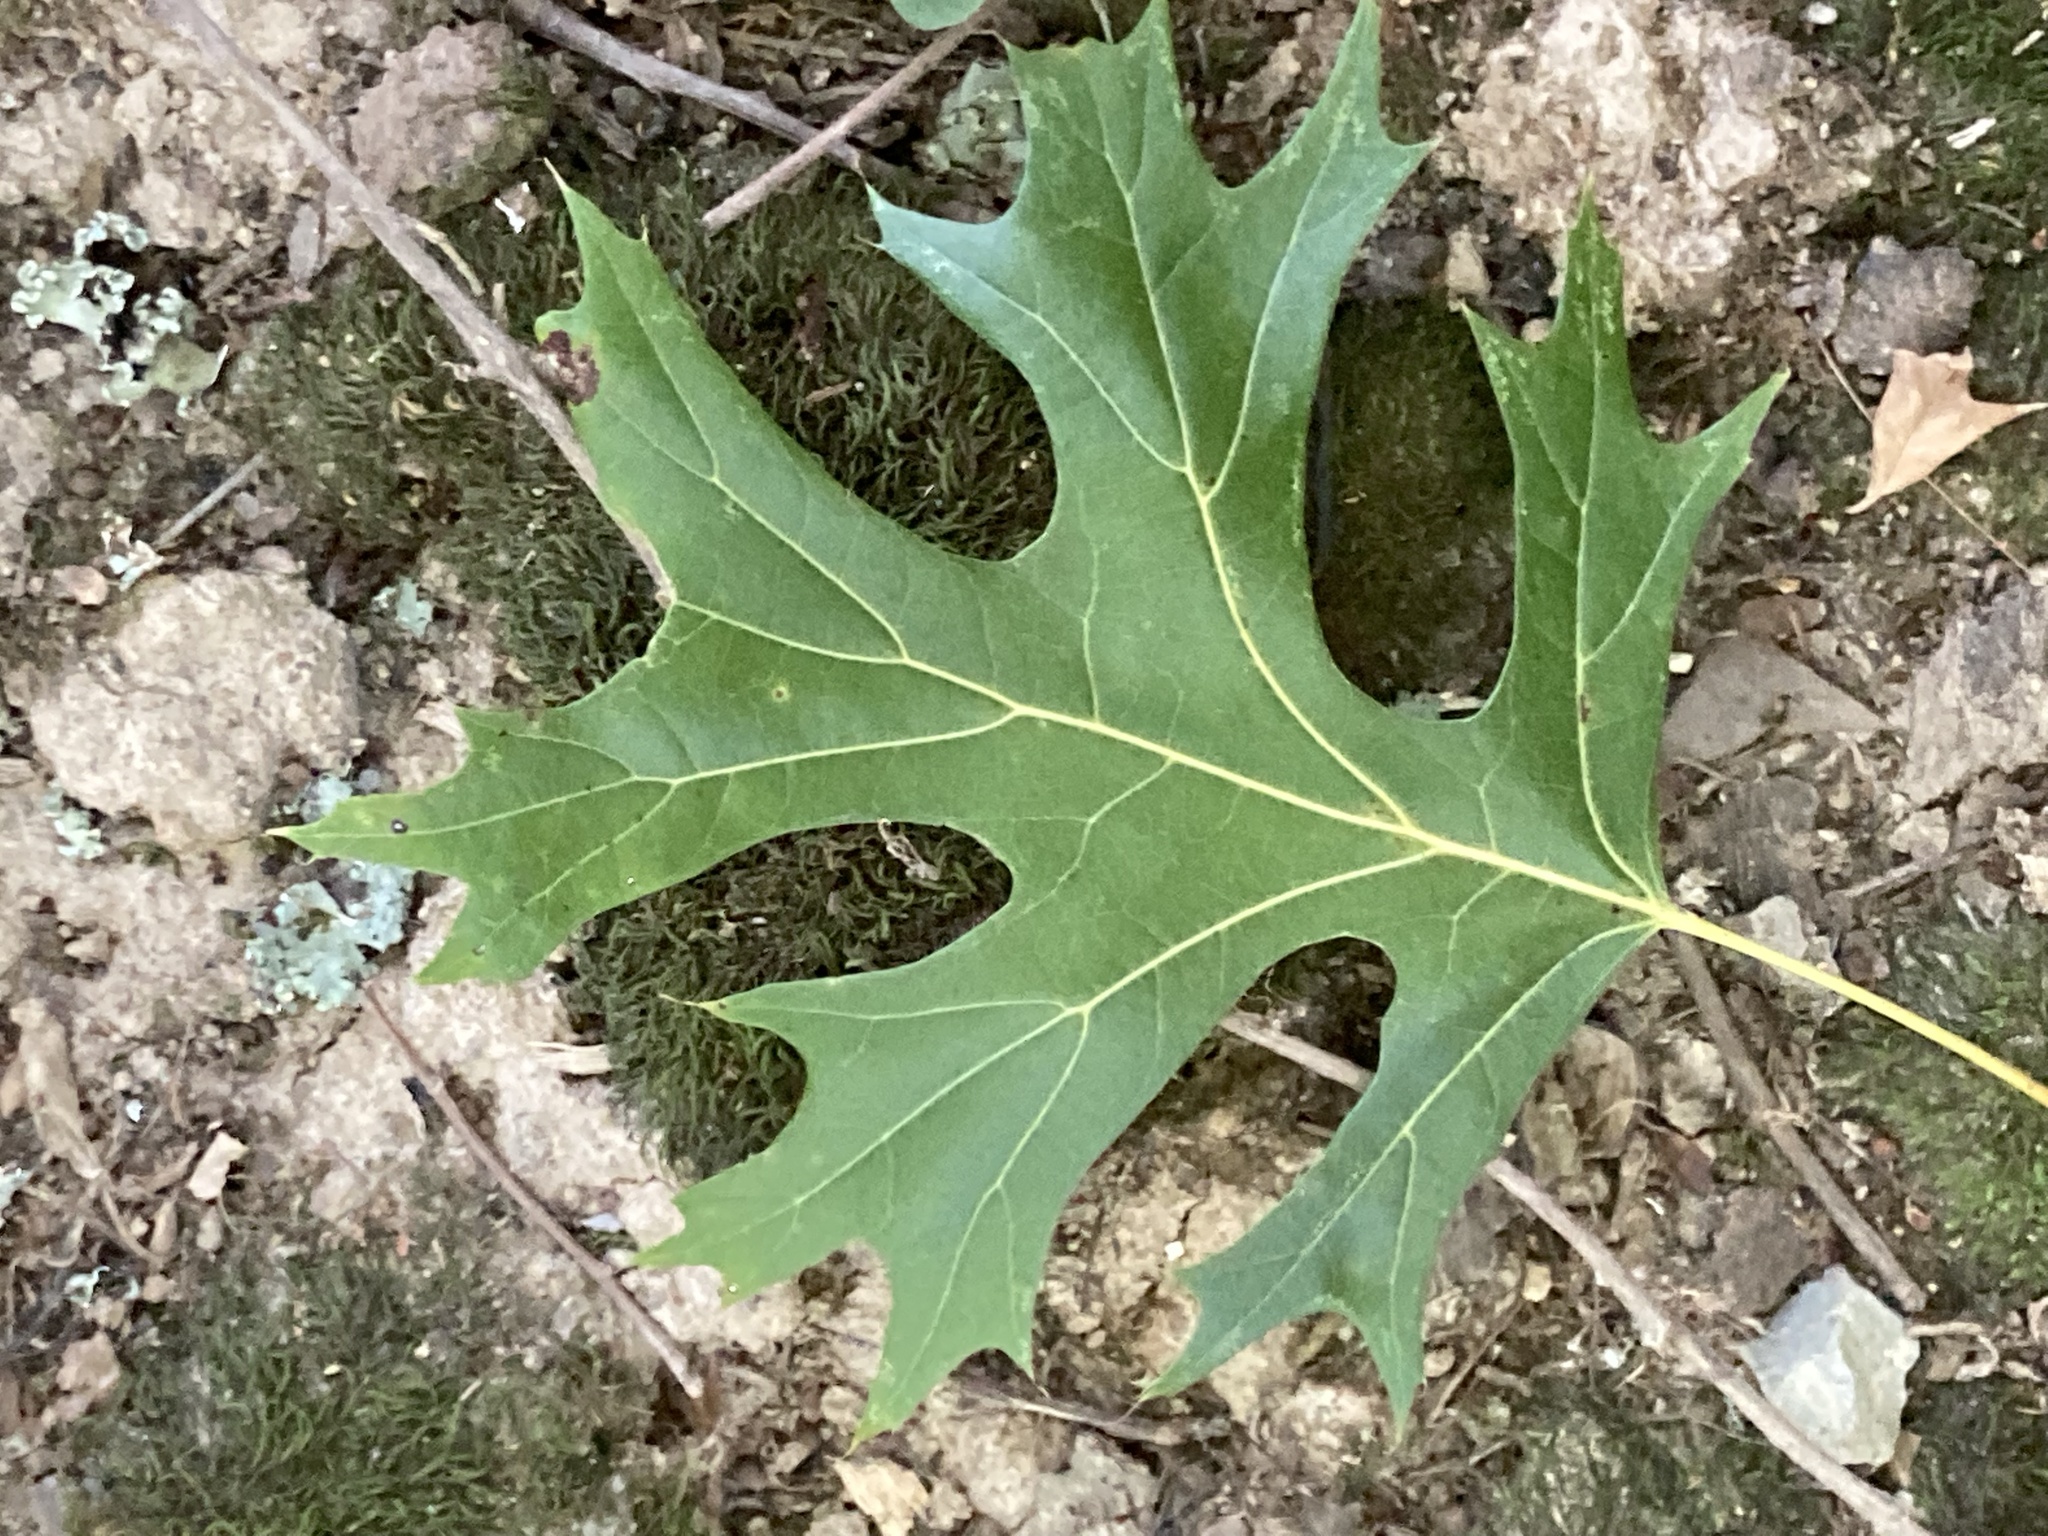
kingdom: Plantae
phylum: Tracheophyta
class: Magnoliopsida
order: Fagales
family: Fagaceae
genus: Quercus
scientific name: Quercus shumardii
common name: Shumard oak
